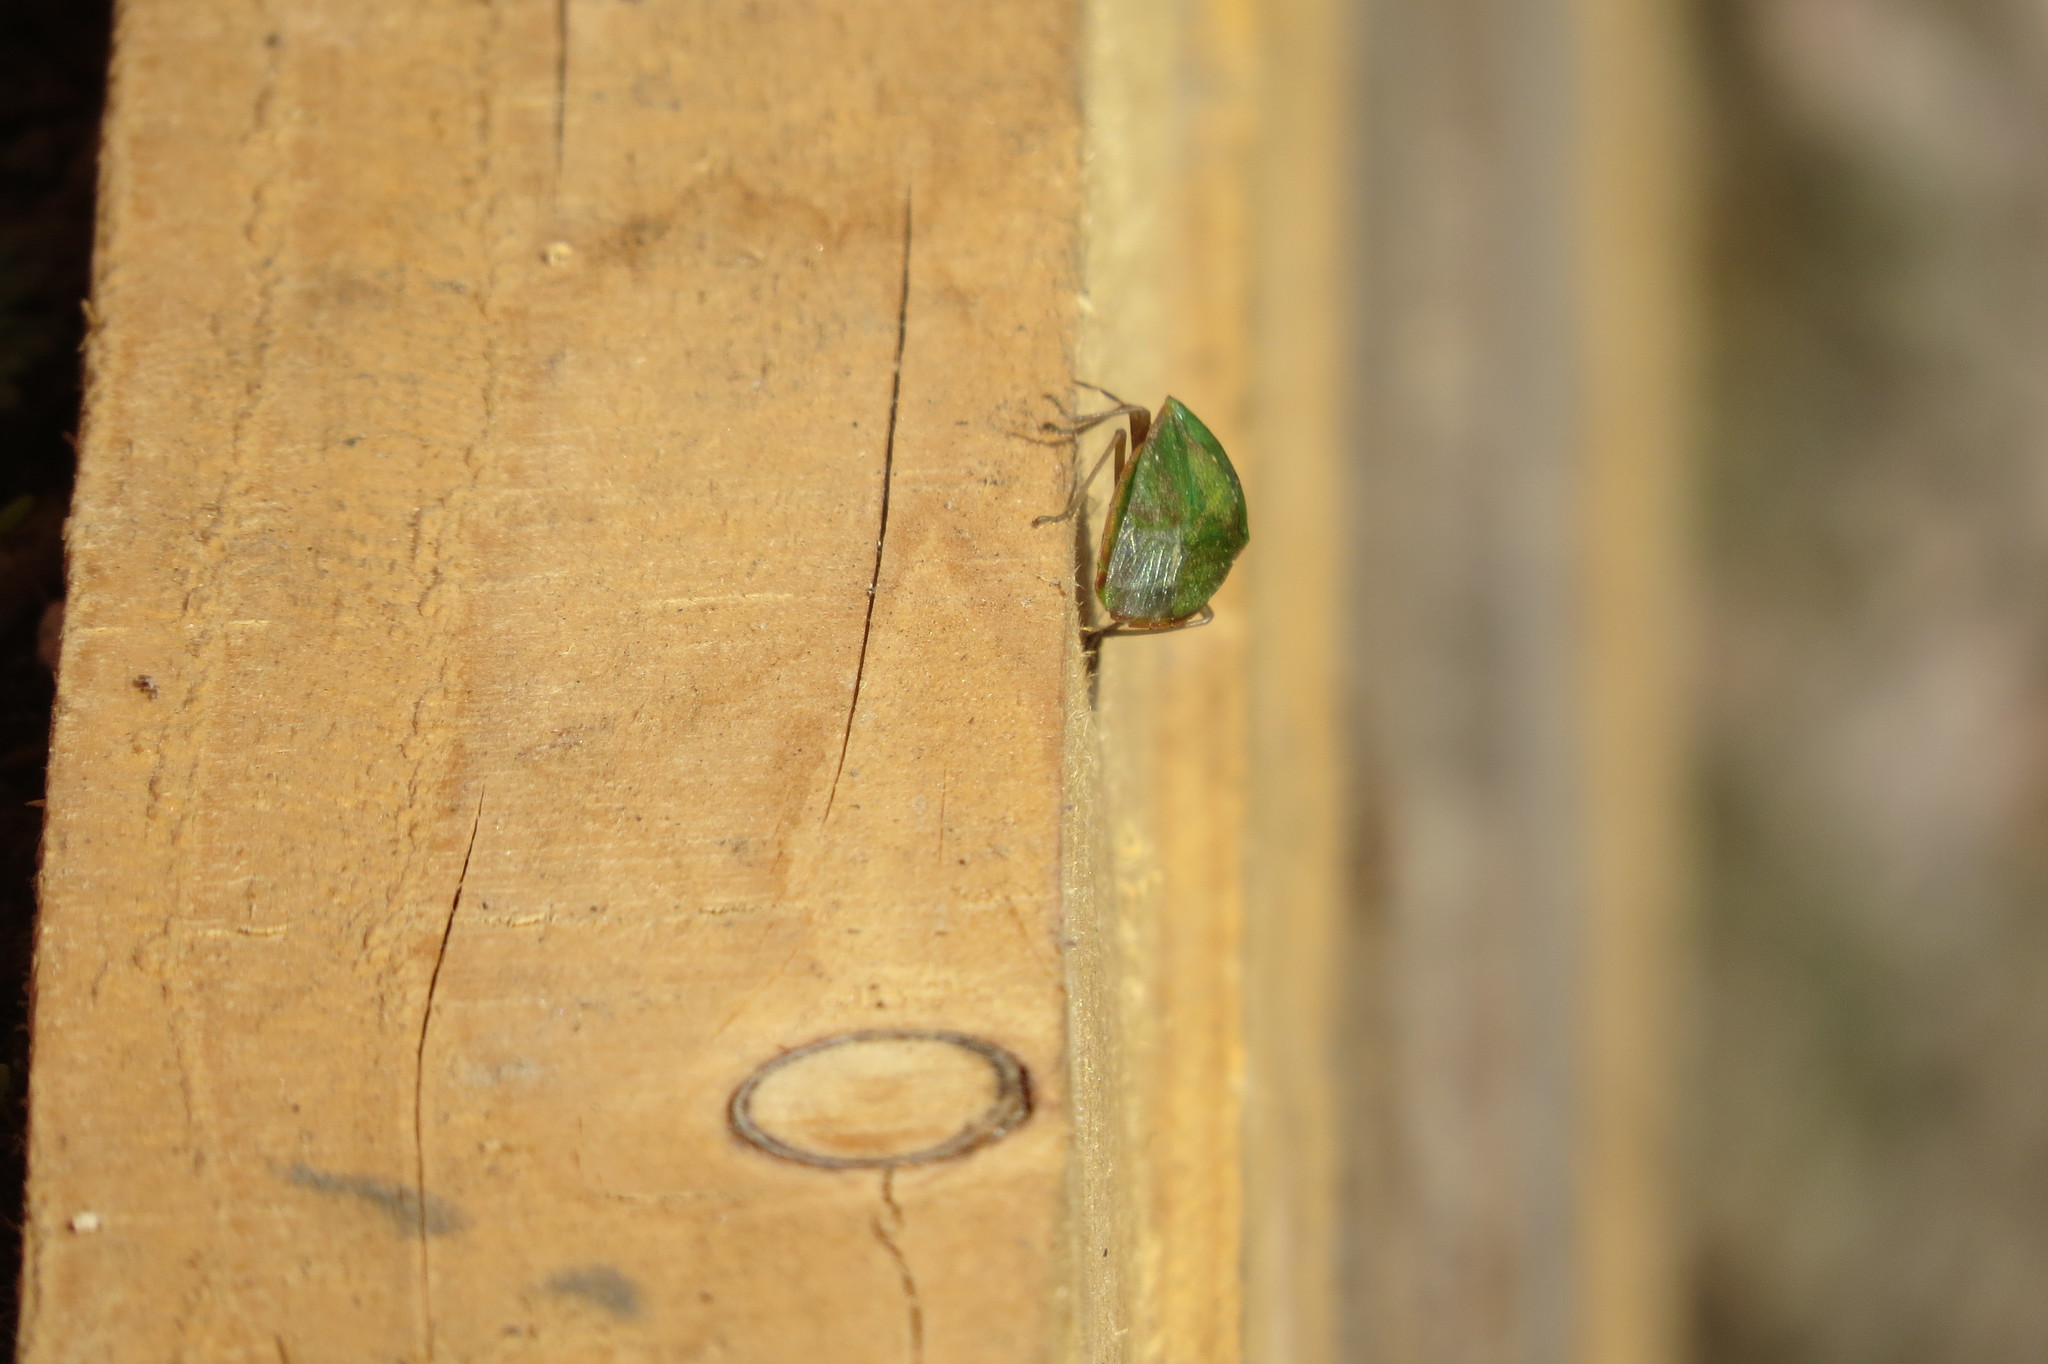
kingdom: Animalia
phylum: Arthropoda
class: Insecta
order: Hemiptera
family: Pentatomidae
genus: Nezara
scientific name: Nezara viridula
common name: Southern green stink bug
